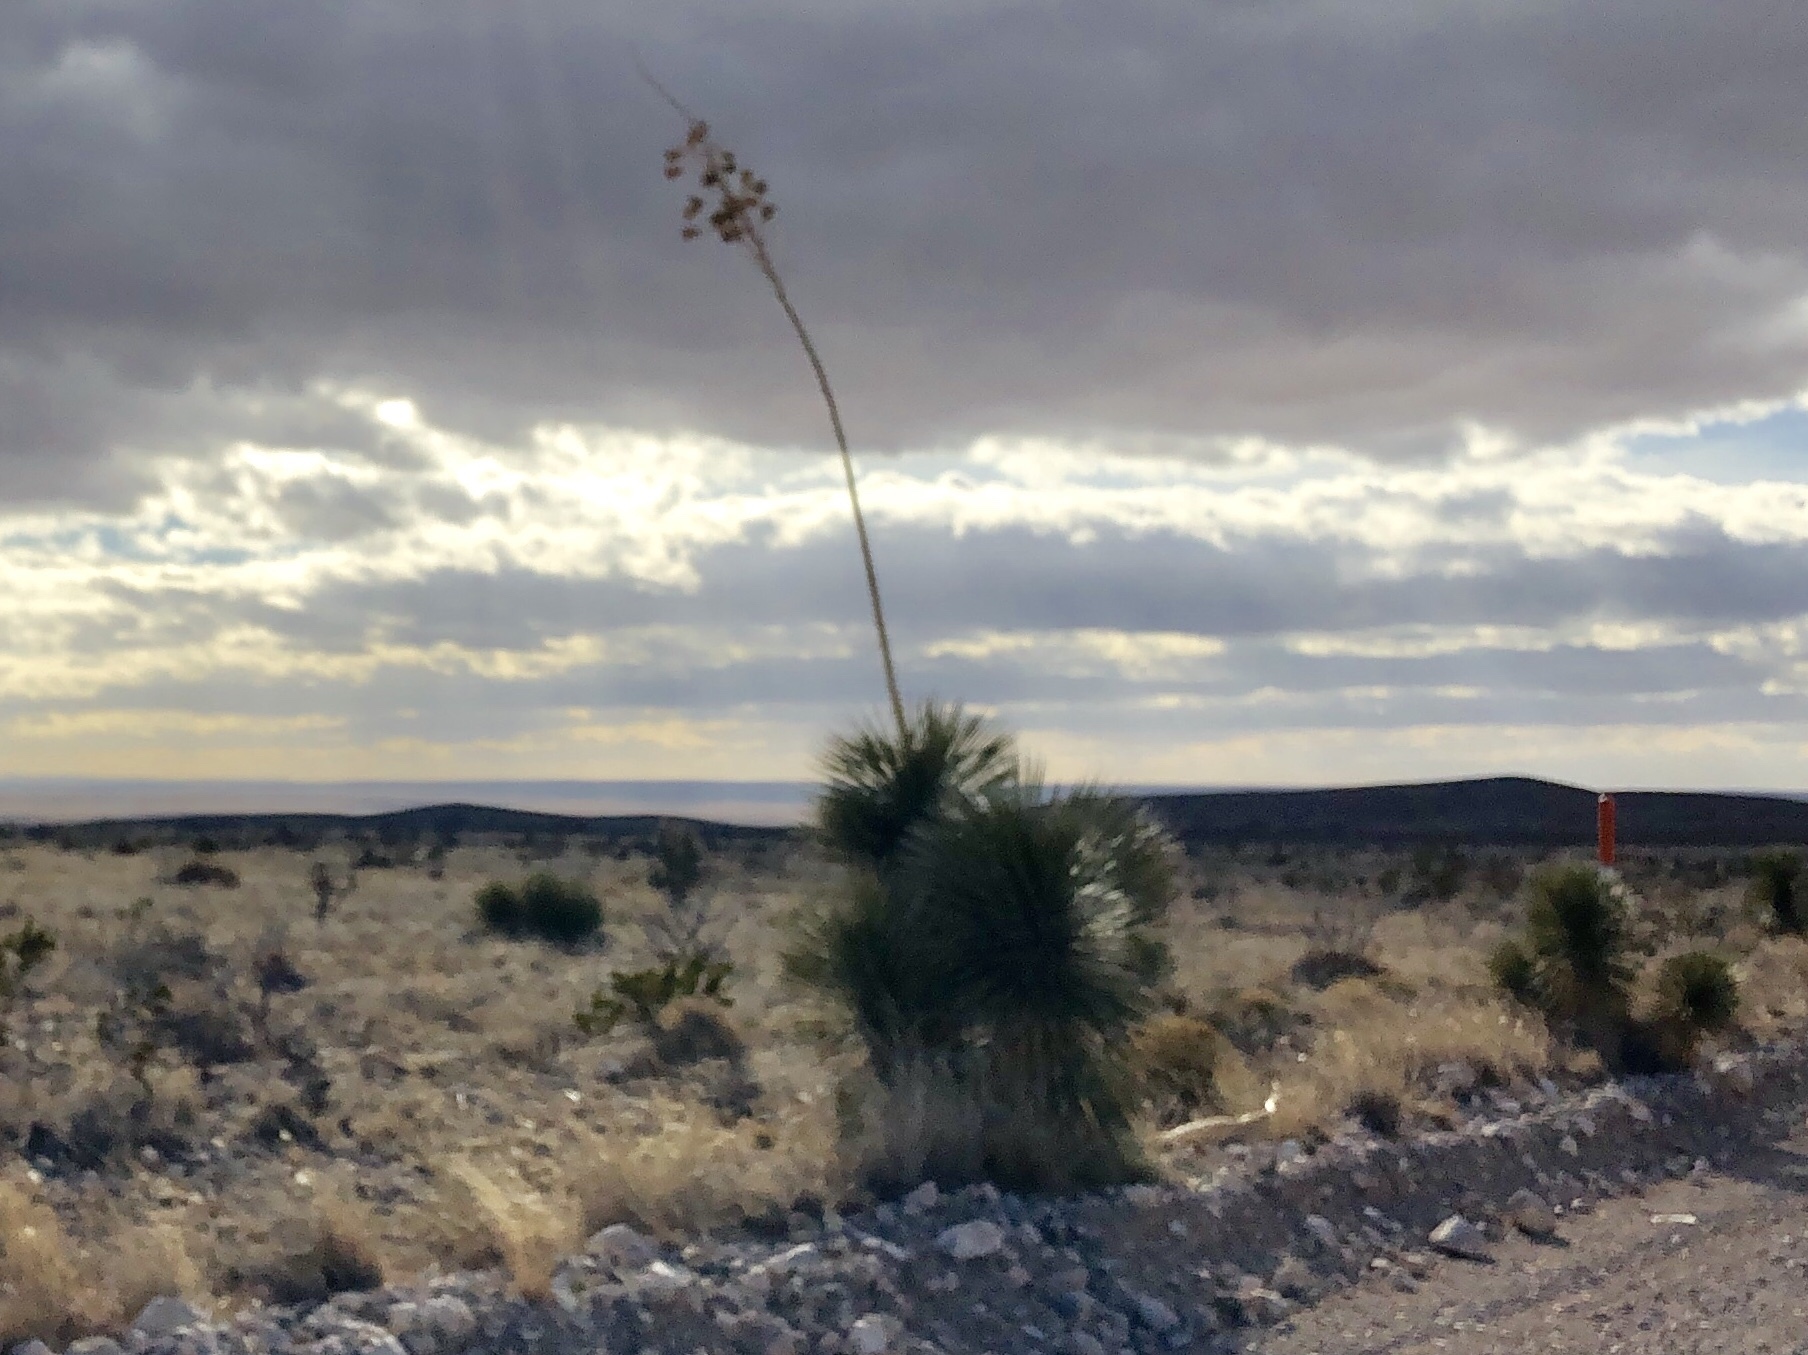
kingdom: Plantae
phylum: Tracheophyta
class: Liliopsida
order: Asparagales
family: Asparagaceae
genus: Yucca
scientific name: Yucca elata
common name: Palmella
